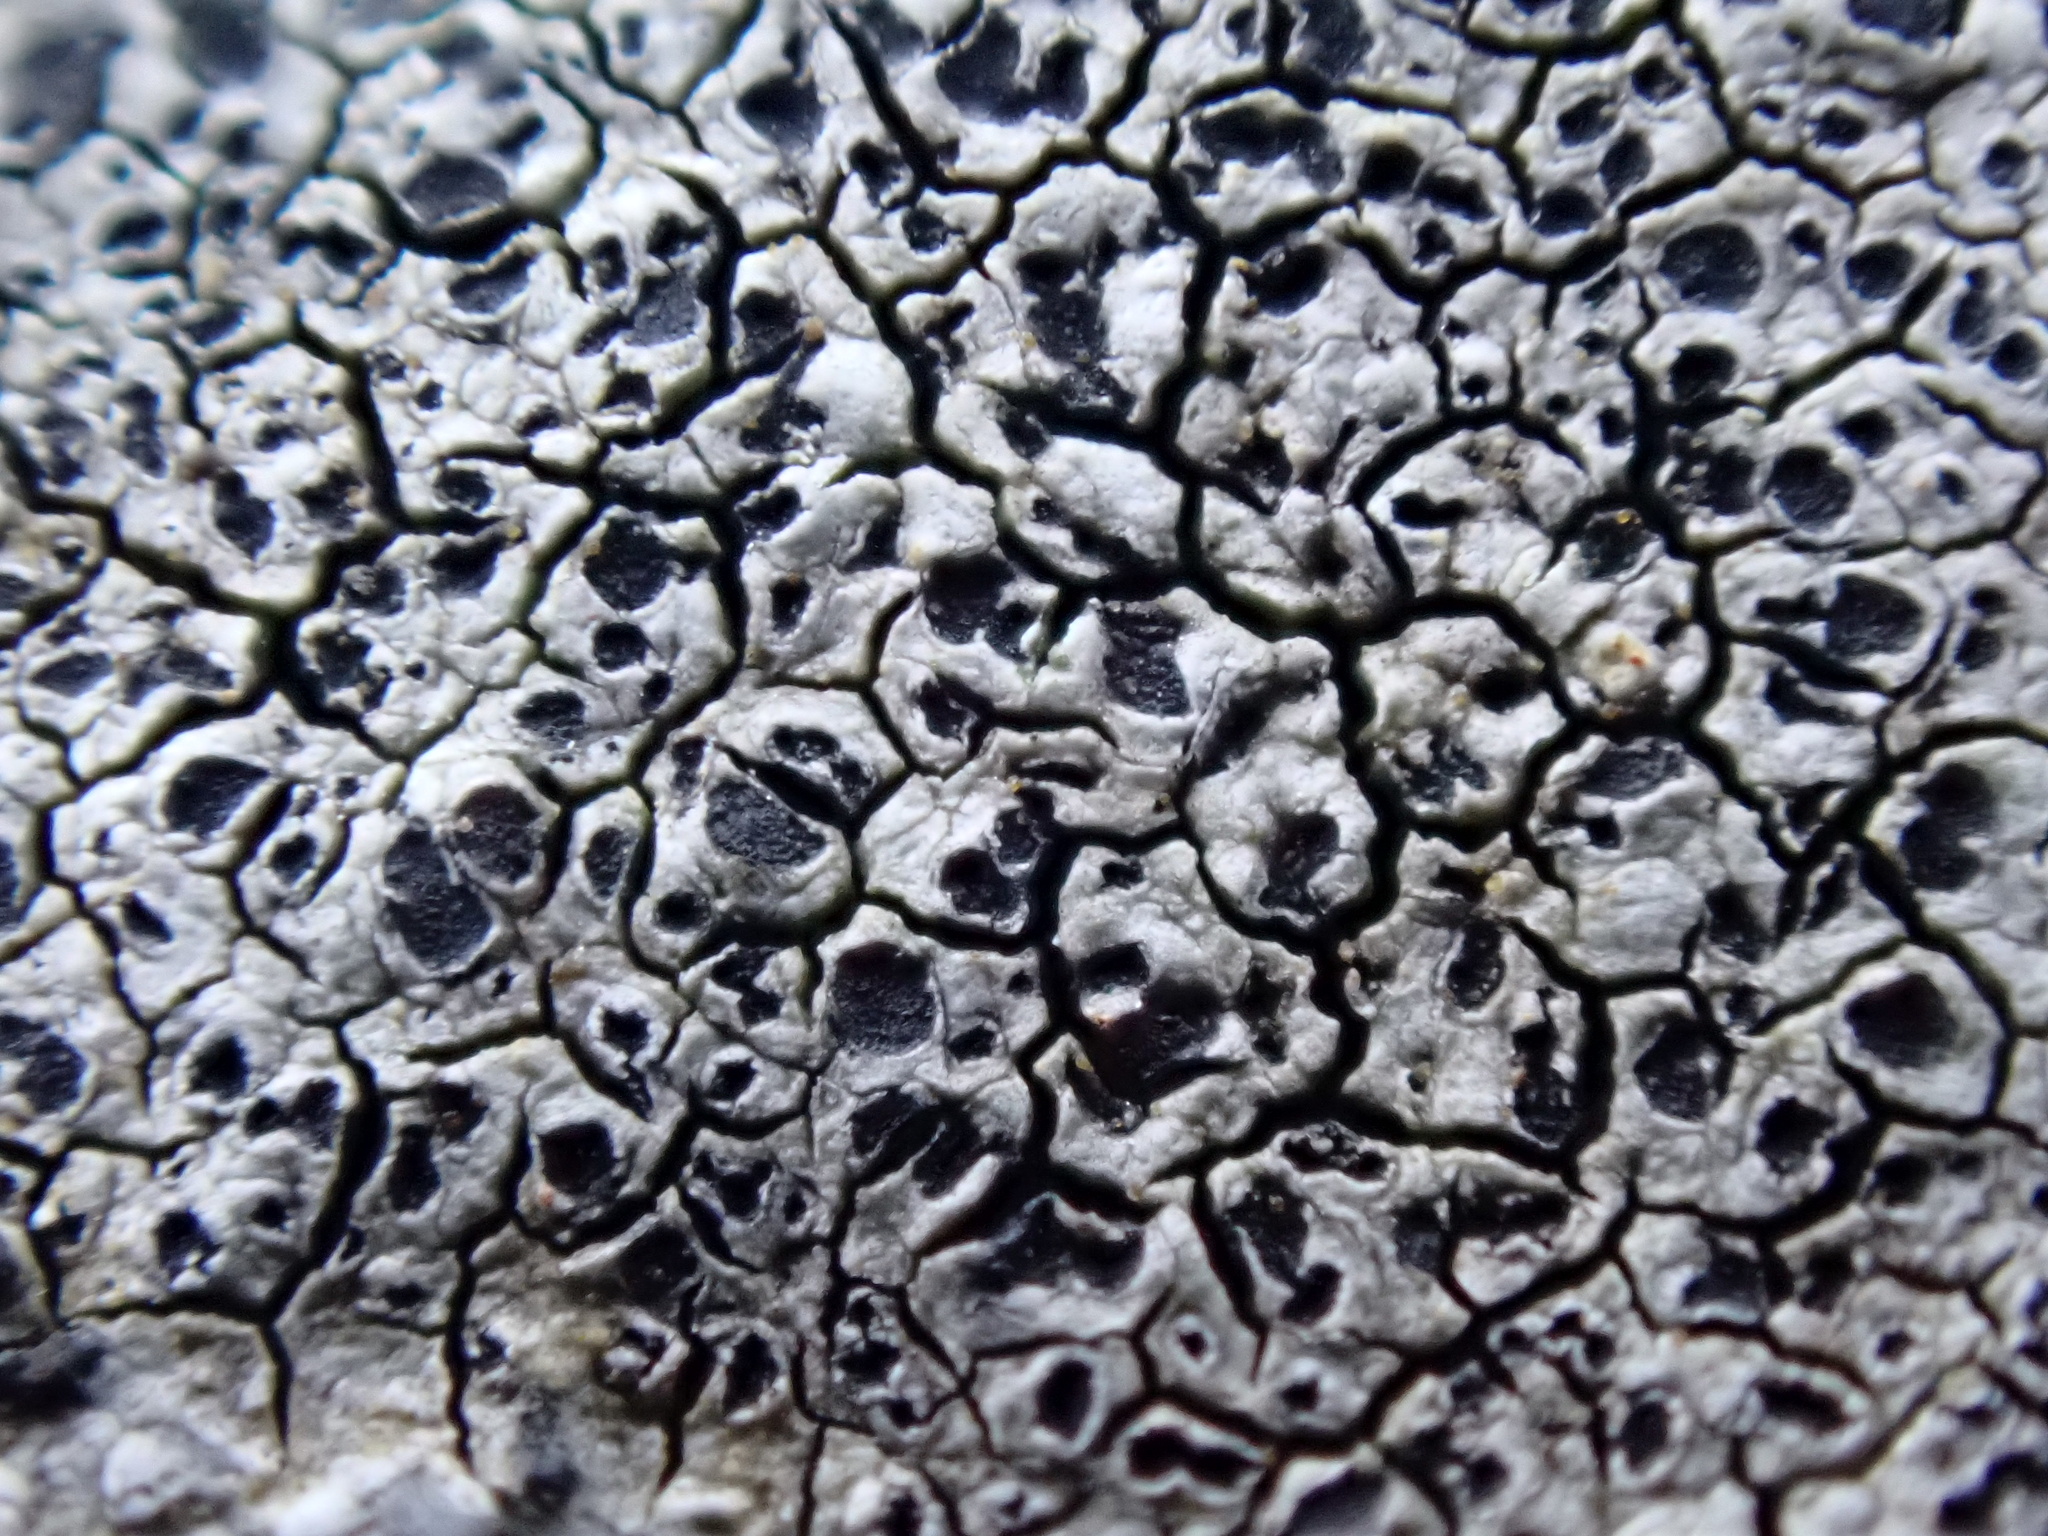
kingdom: Fungi
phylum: Ascomycota
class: Lecanoromycetes
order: Caliciales
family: Caliciaceae
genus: Buellia
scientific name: Buellia aethalea
